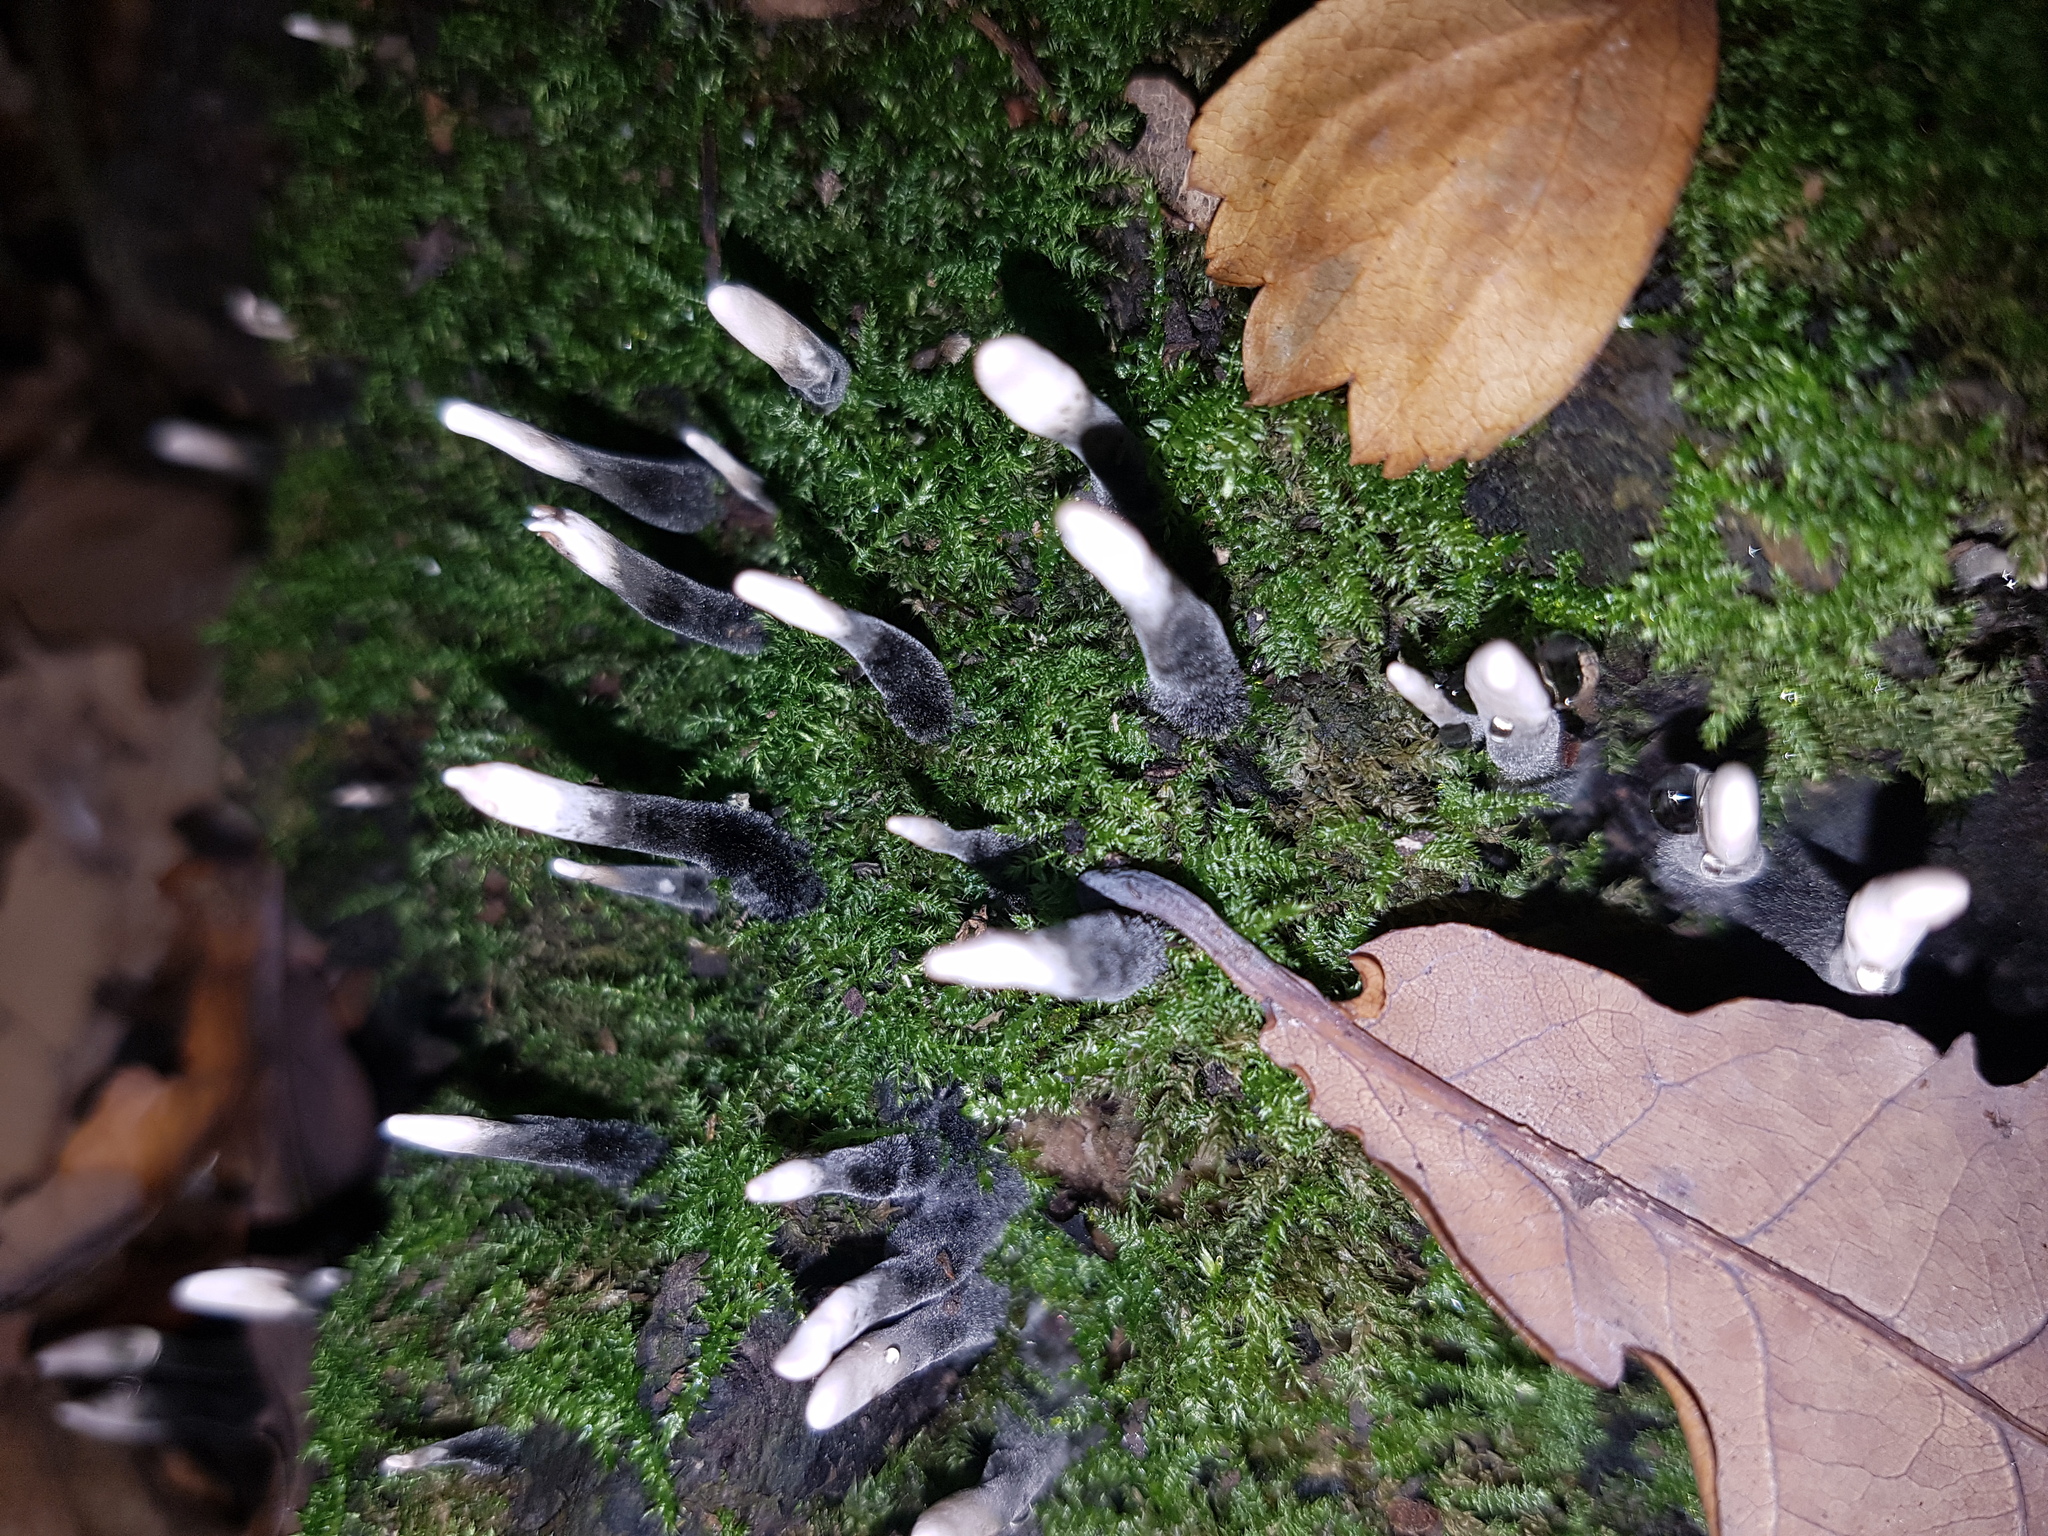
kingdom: Fungi
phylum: Ascomycota
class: Sordariomycetes
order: Xylariales
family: Xylariaceae
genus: Xylaria
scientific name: Xylaria hypoxylon
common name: Candle-snuff fungus
